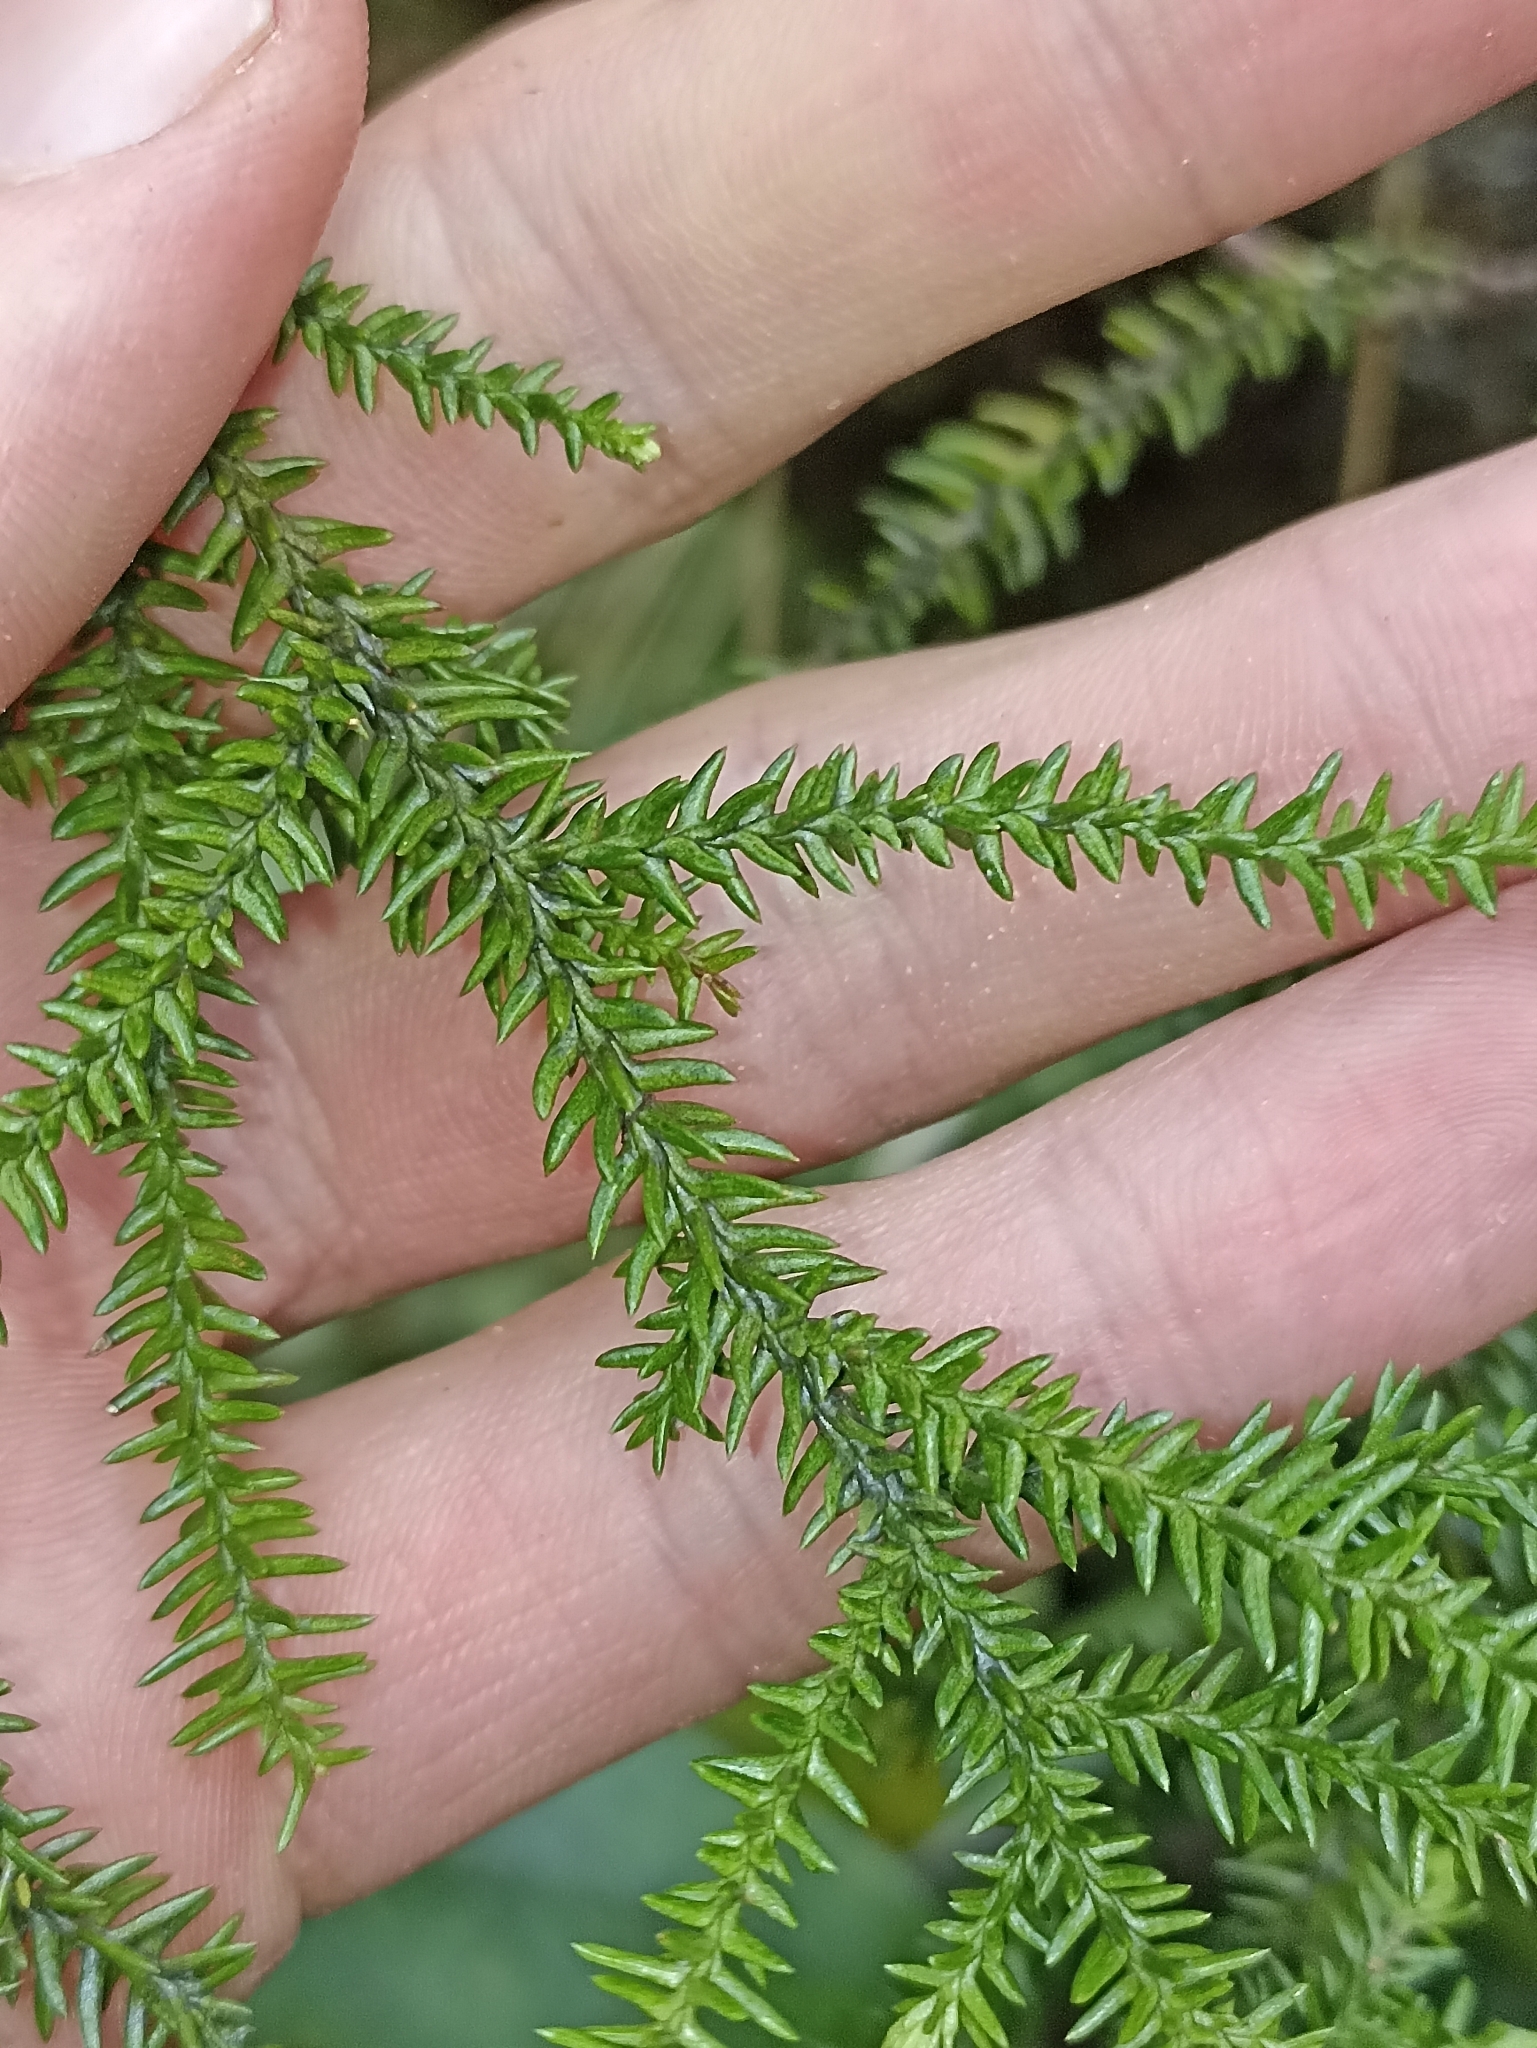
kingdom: Plantae
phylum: Tracheophyta
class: Pinopsida
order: Pinales
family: Podocarpaceae
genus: Lepidothamnus
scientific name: Lepidothamnus intermedius
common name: Yellow silver pine
